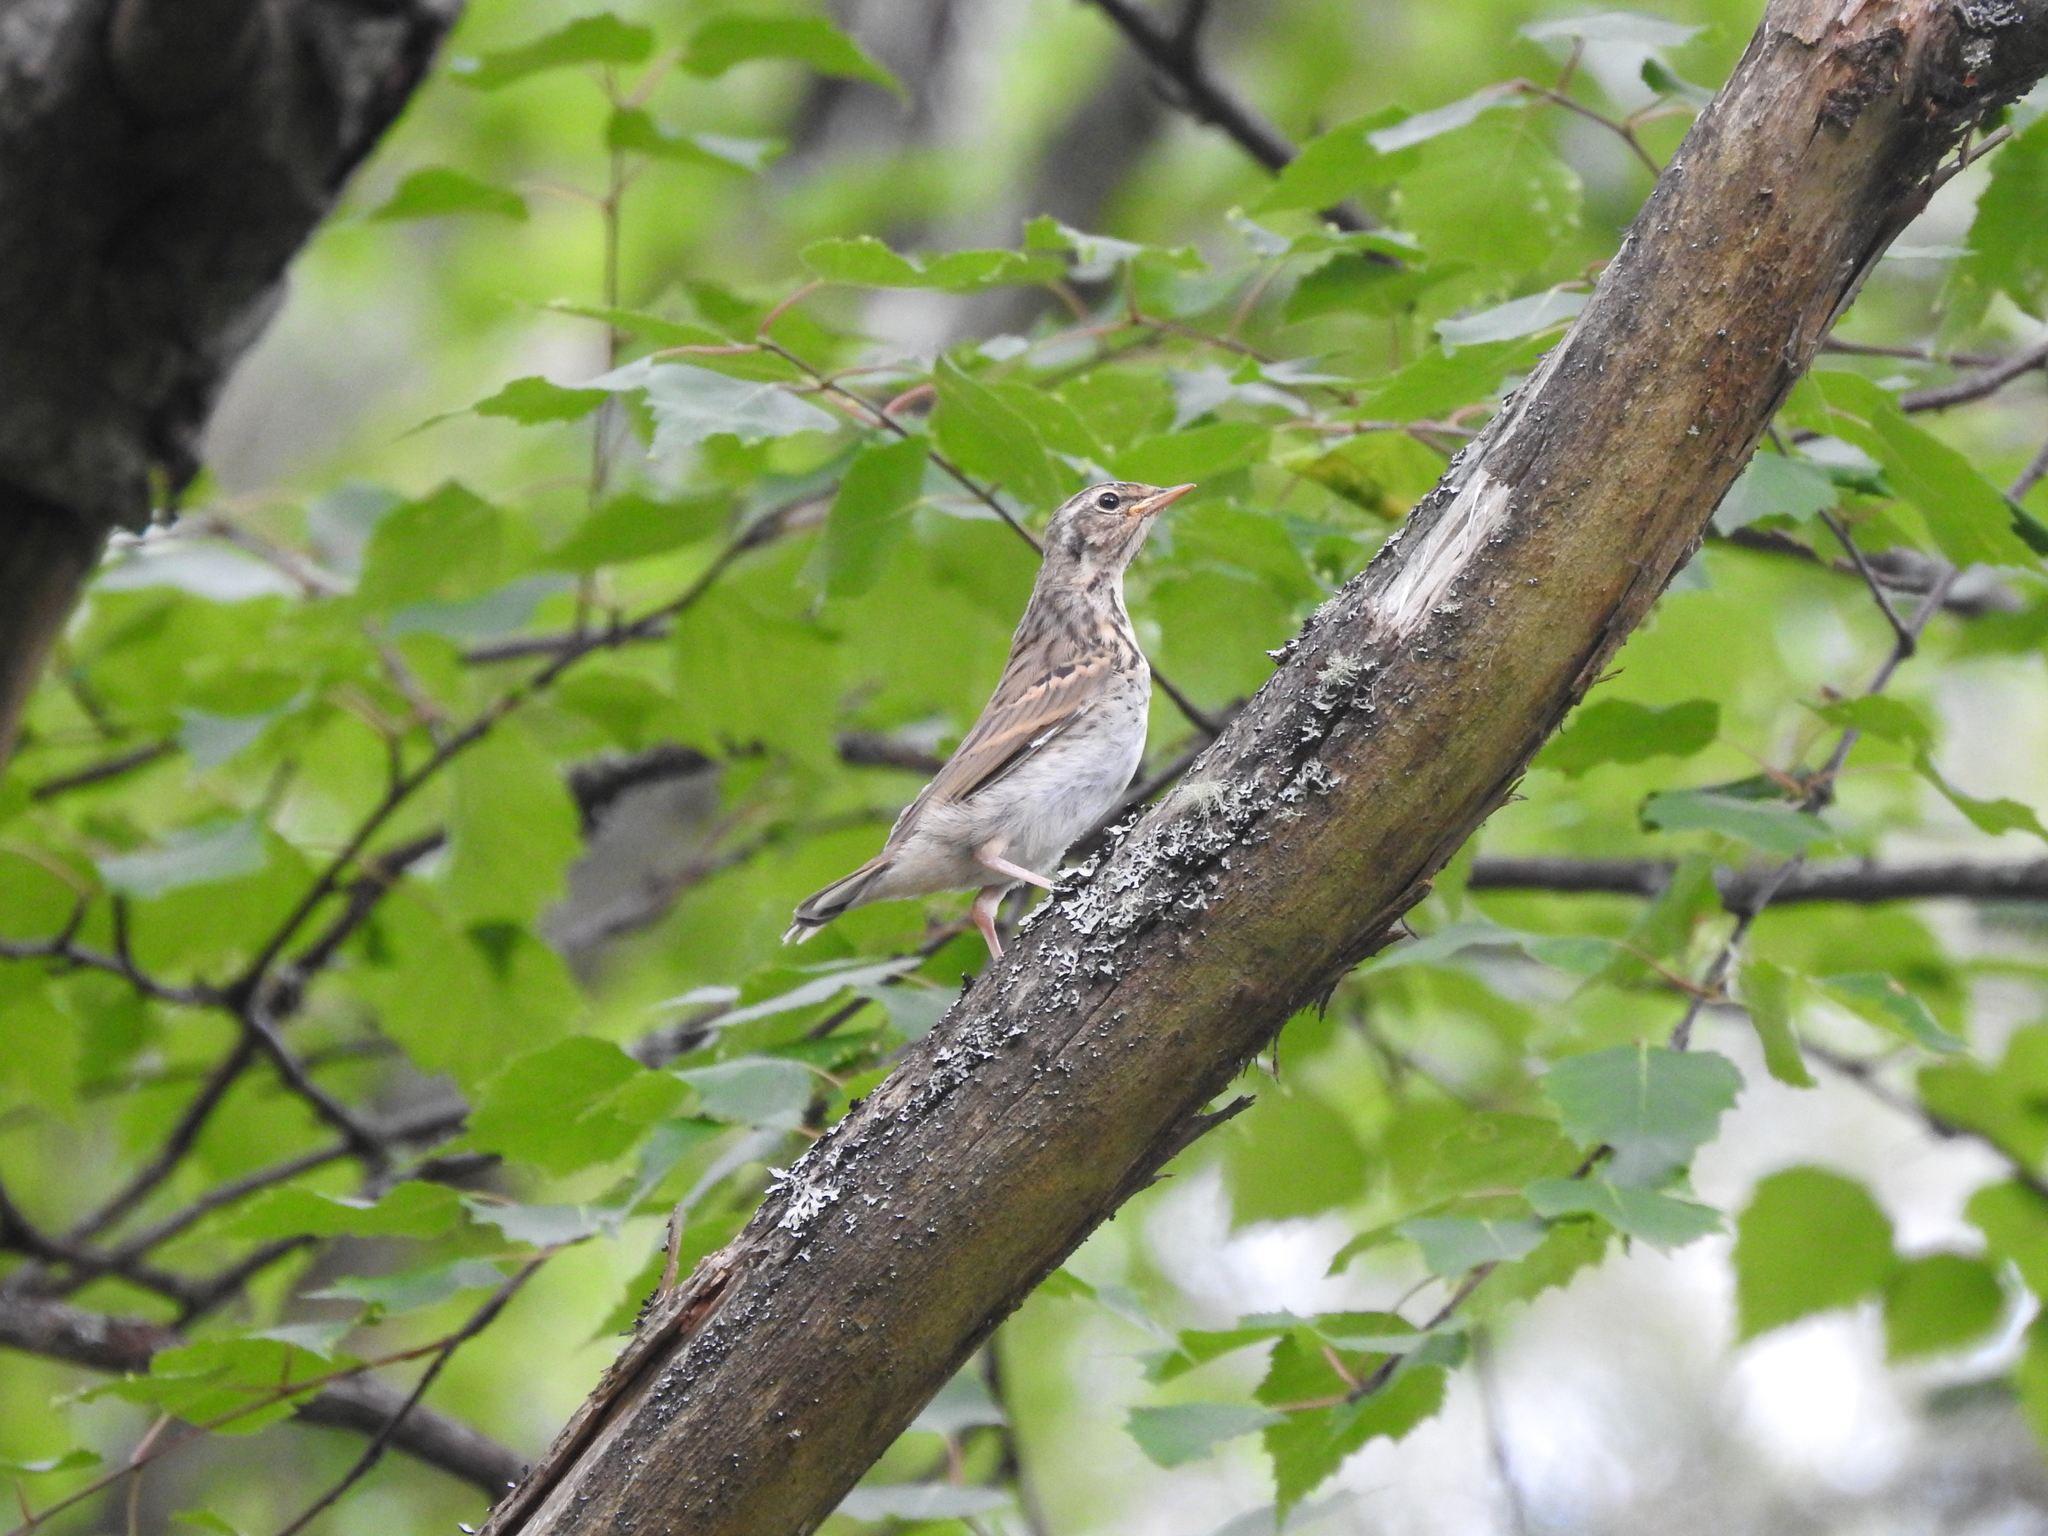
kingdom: Animalia
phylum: Chordata
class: Aves
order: Passeriformes
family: Motacillidae
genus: Anthus
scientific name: Anthus trivialis
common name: Tree pipit
